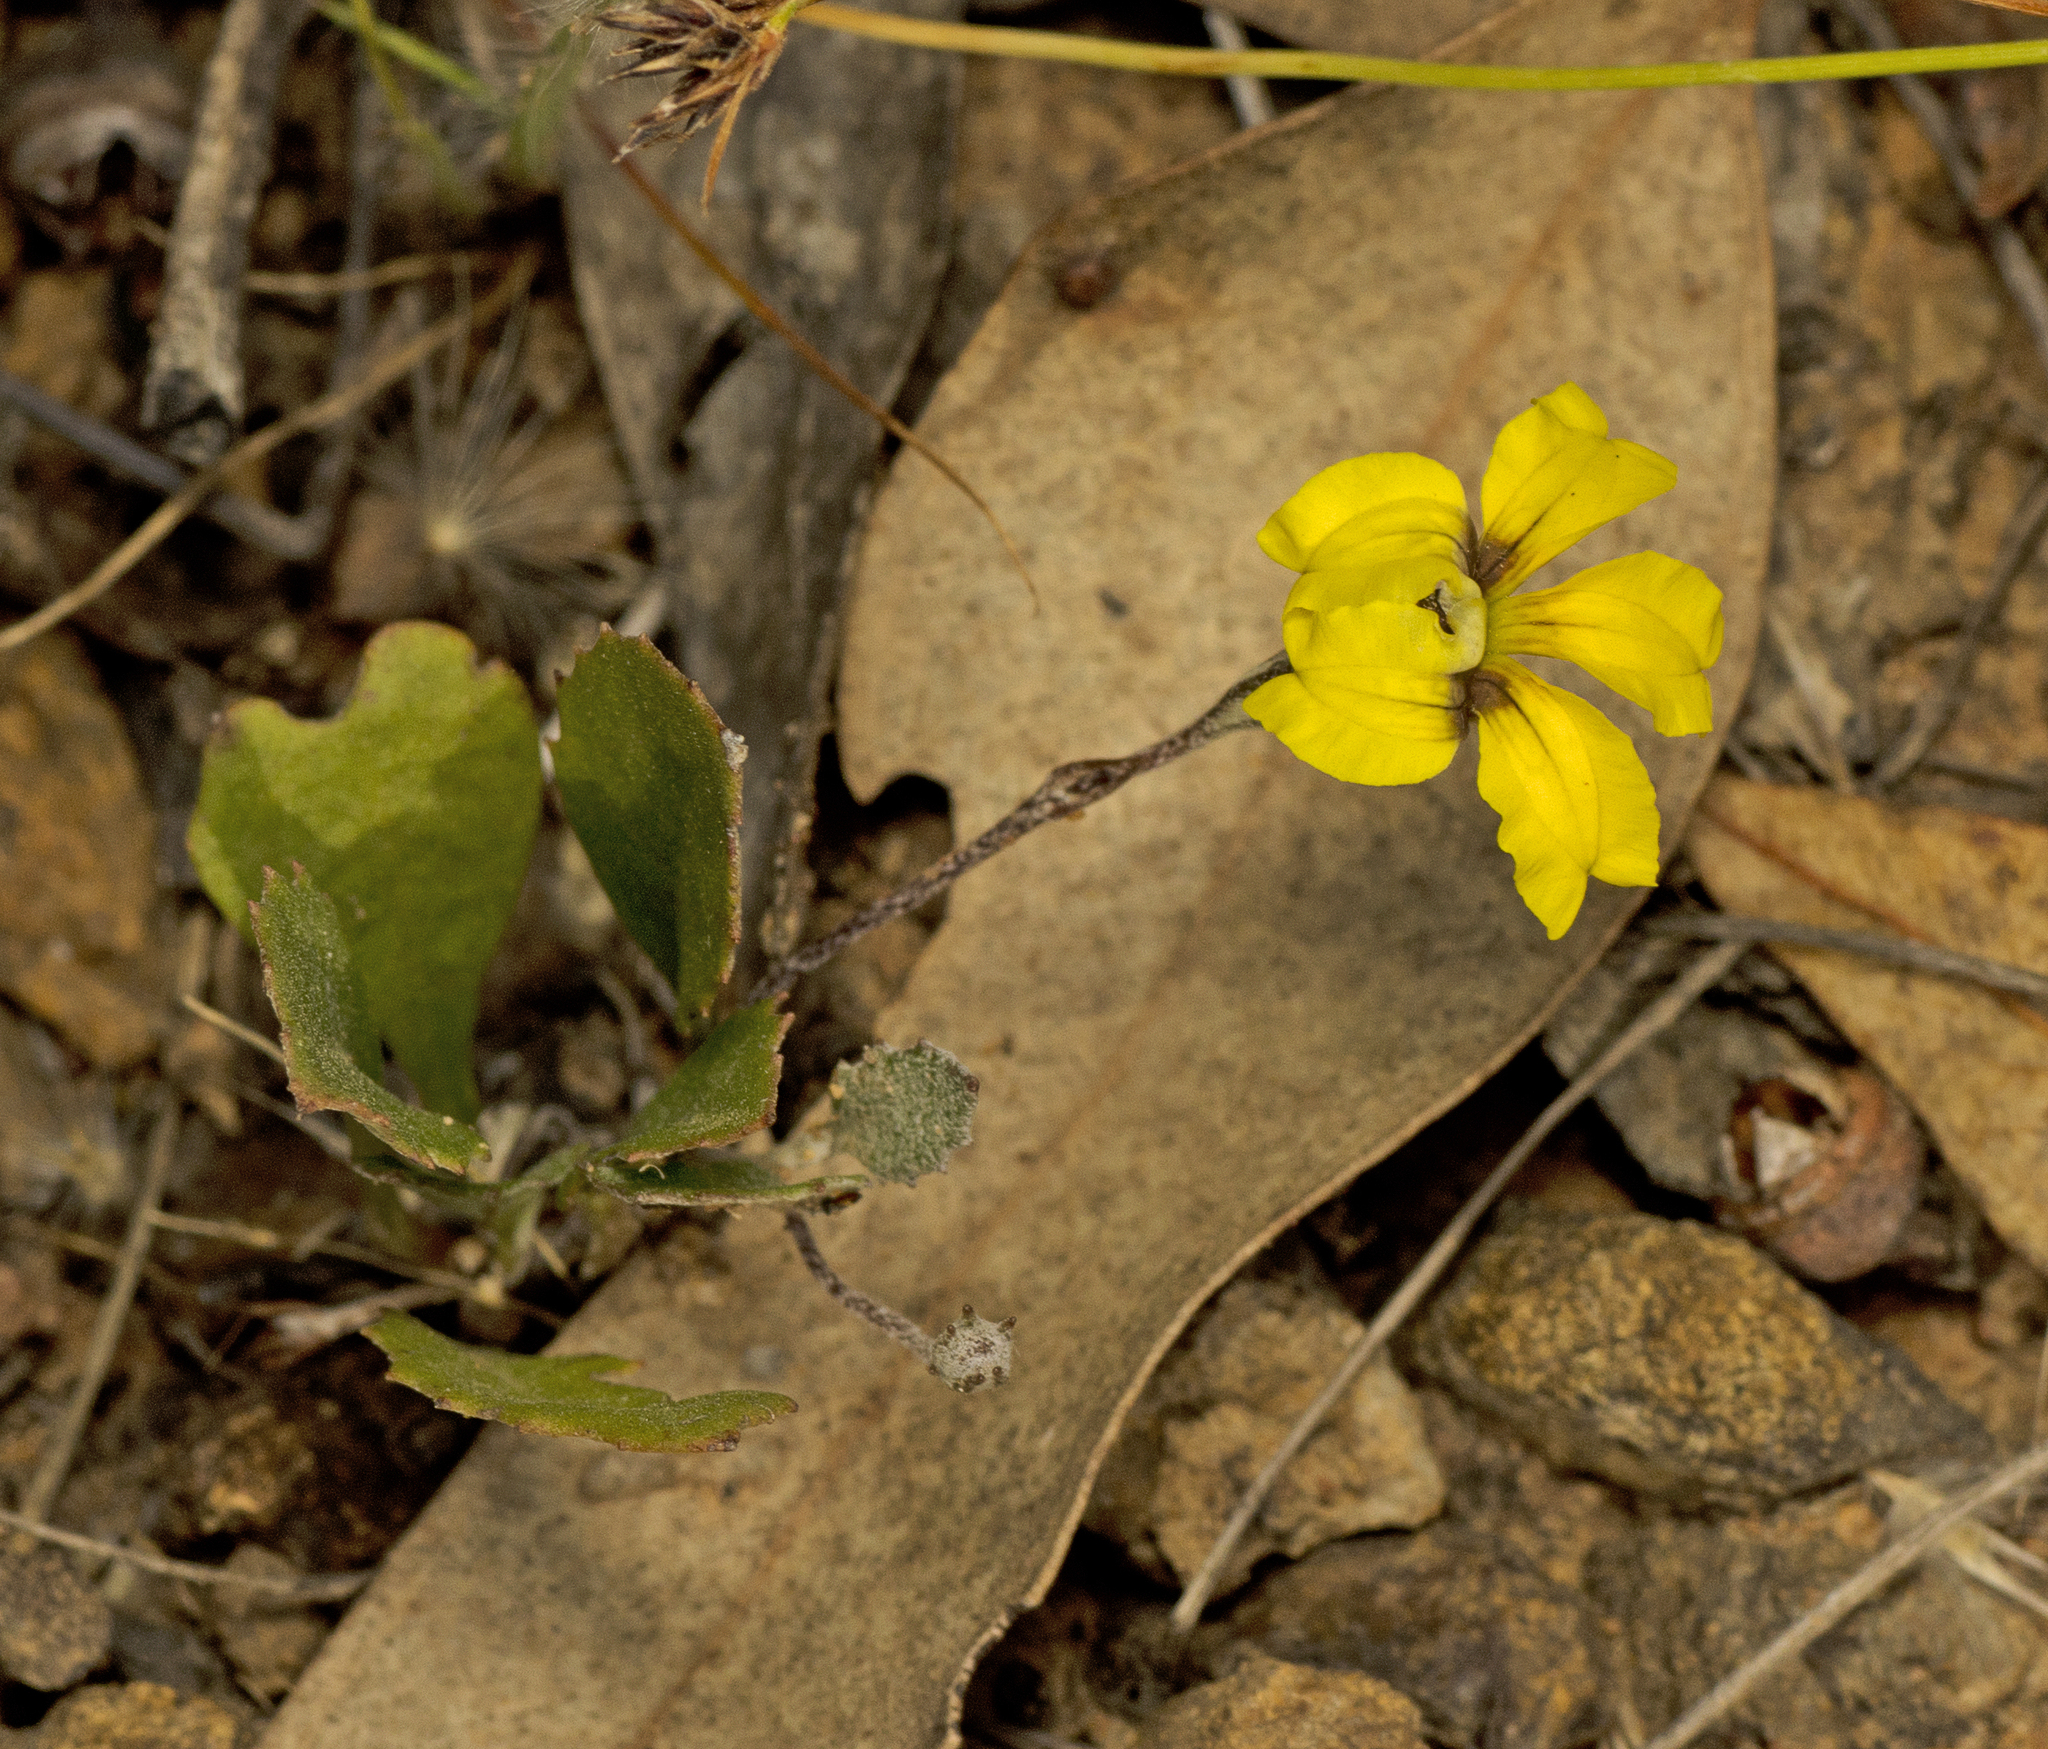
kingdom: Plantae
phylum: Tracheophyta
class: Magnoliopsida
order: Asterales
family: Goodeniaceae
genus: Goodenia
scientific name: Goodenia hederacea
